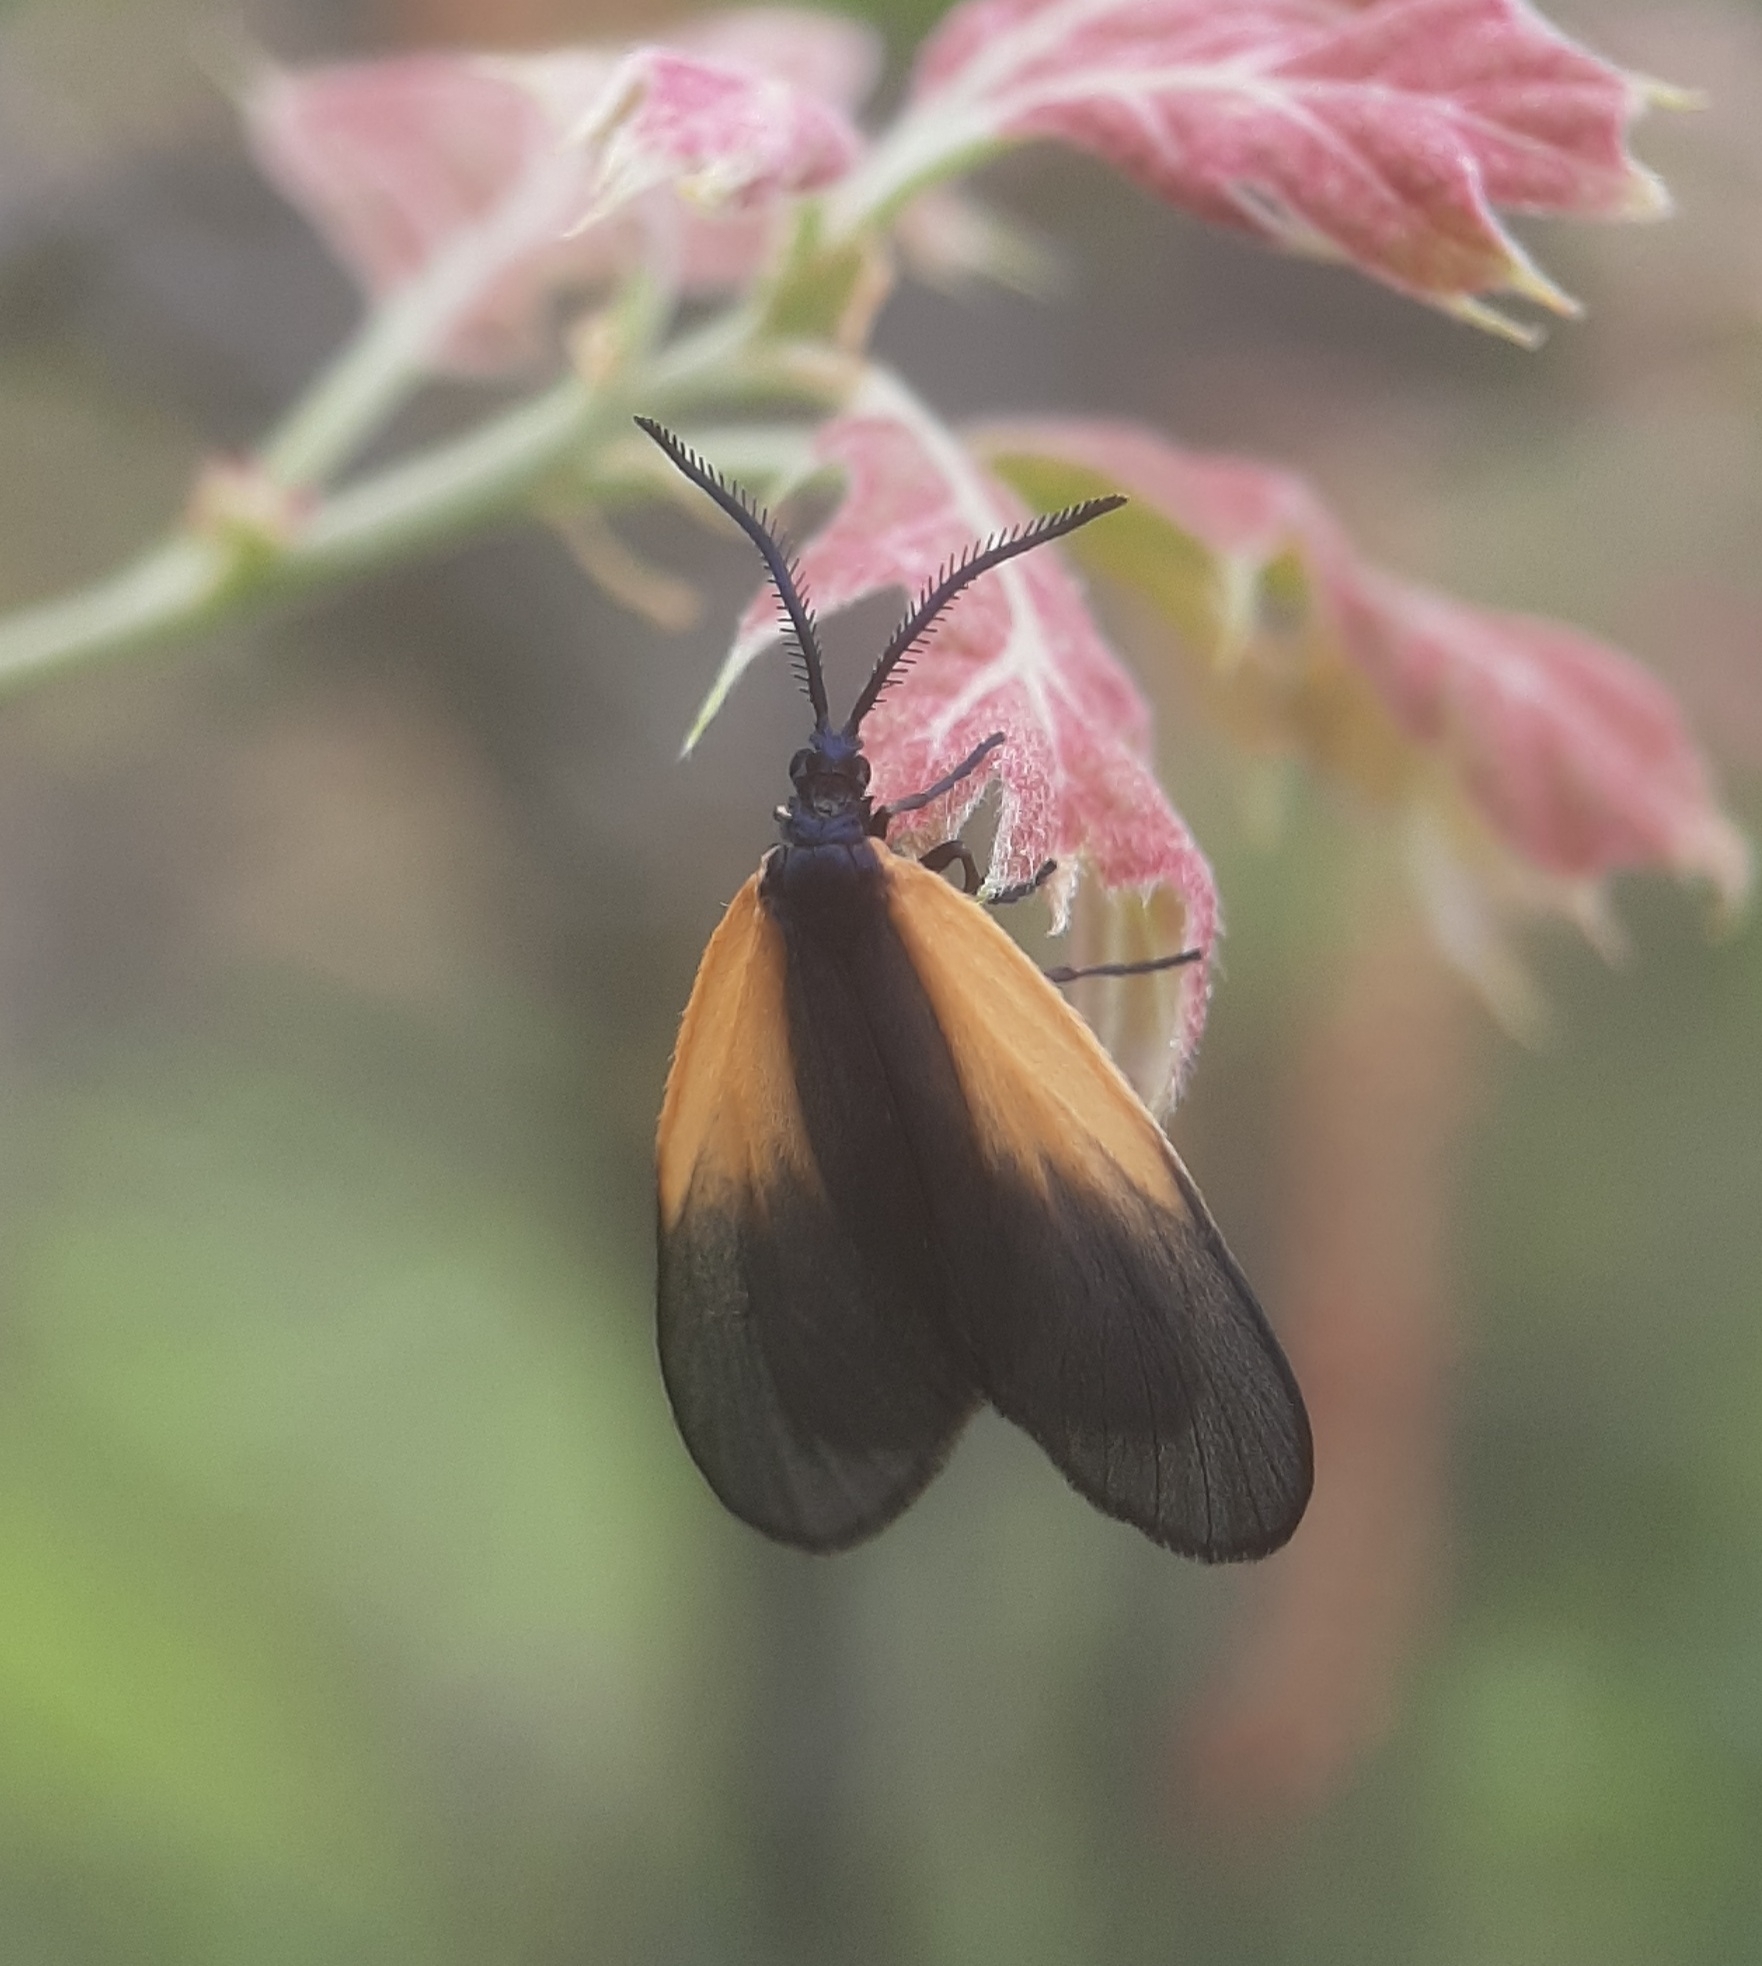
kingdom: Animalia
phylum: Arthropoda
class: Insecta
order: Lepidoptera
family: Zygaenidae
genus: Malthaca
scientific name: Malthaca dimidiata
